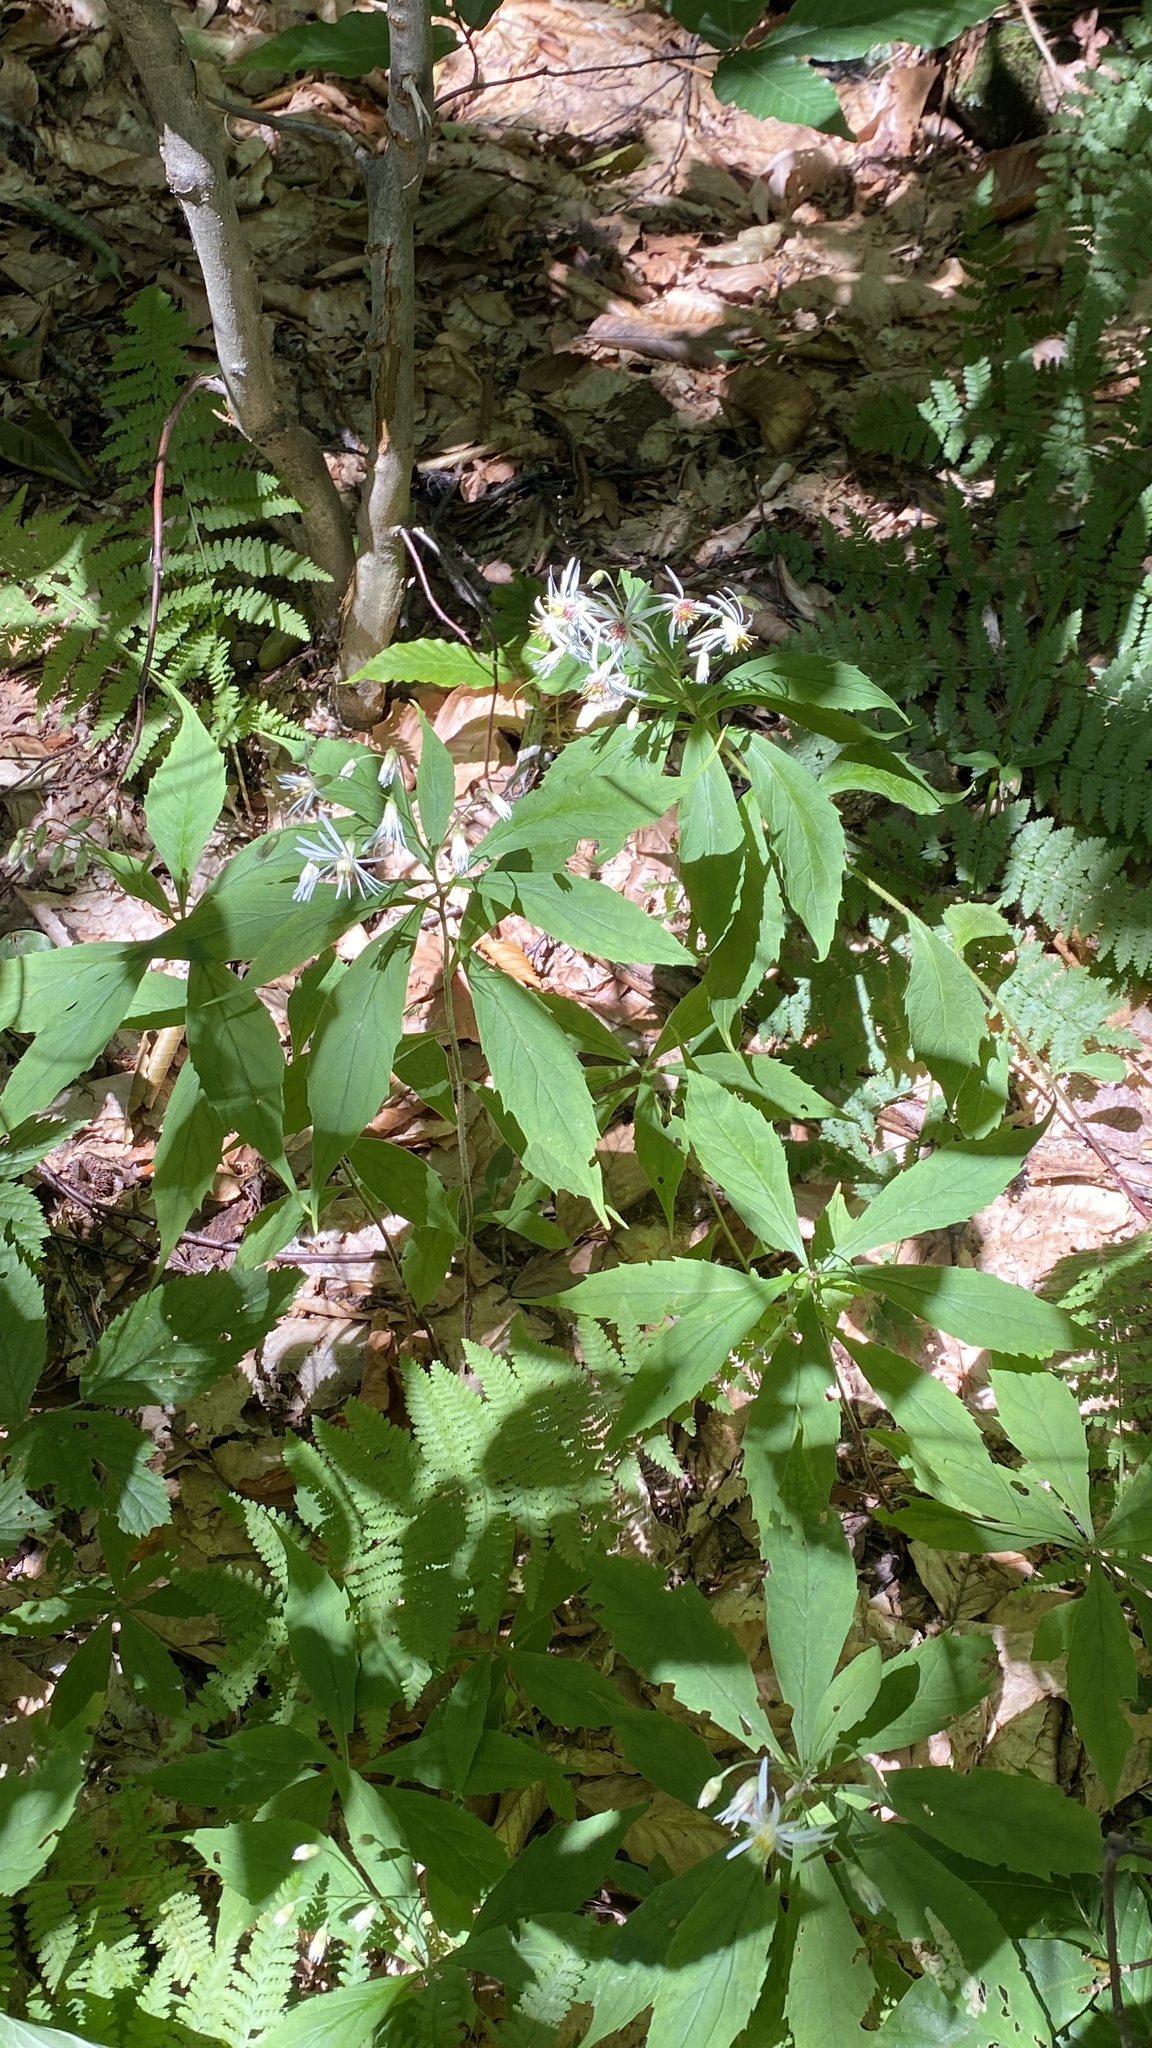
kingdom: Plantae
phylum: Tracheophyta
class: Magnoliopsida
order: Asterales
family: Asteraceae
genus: Oclemena
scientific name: Oclemena acuminata
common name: Mountain aster
